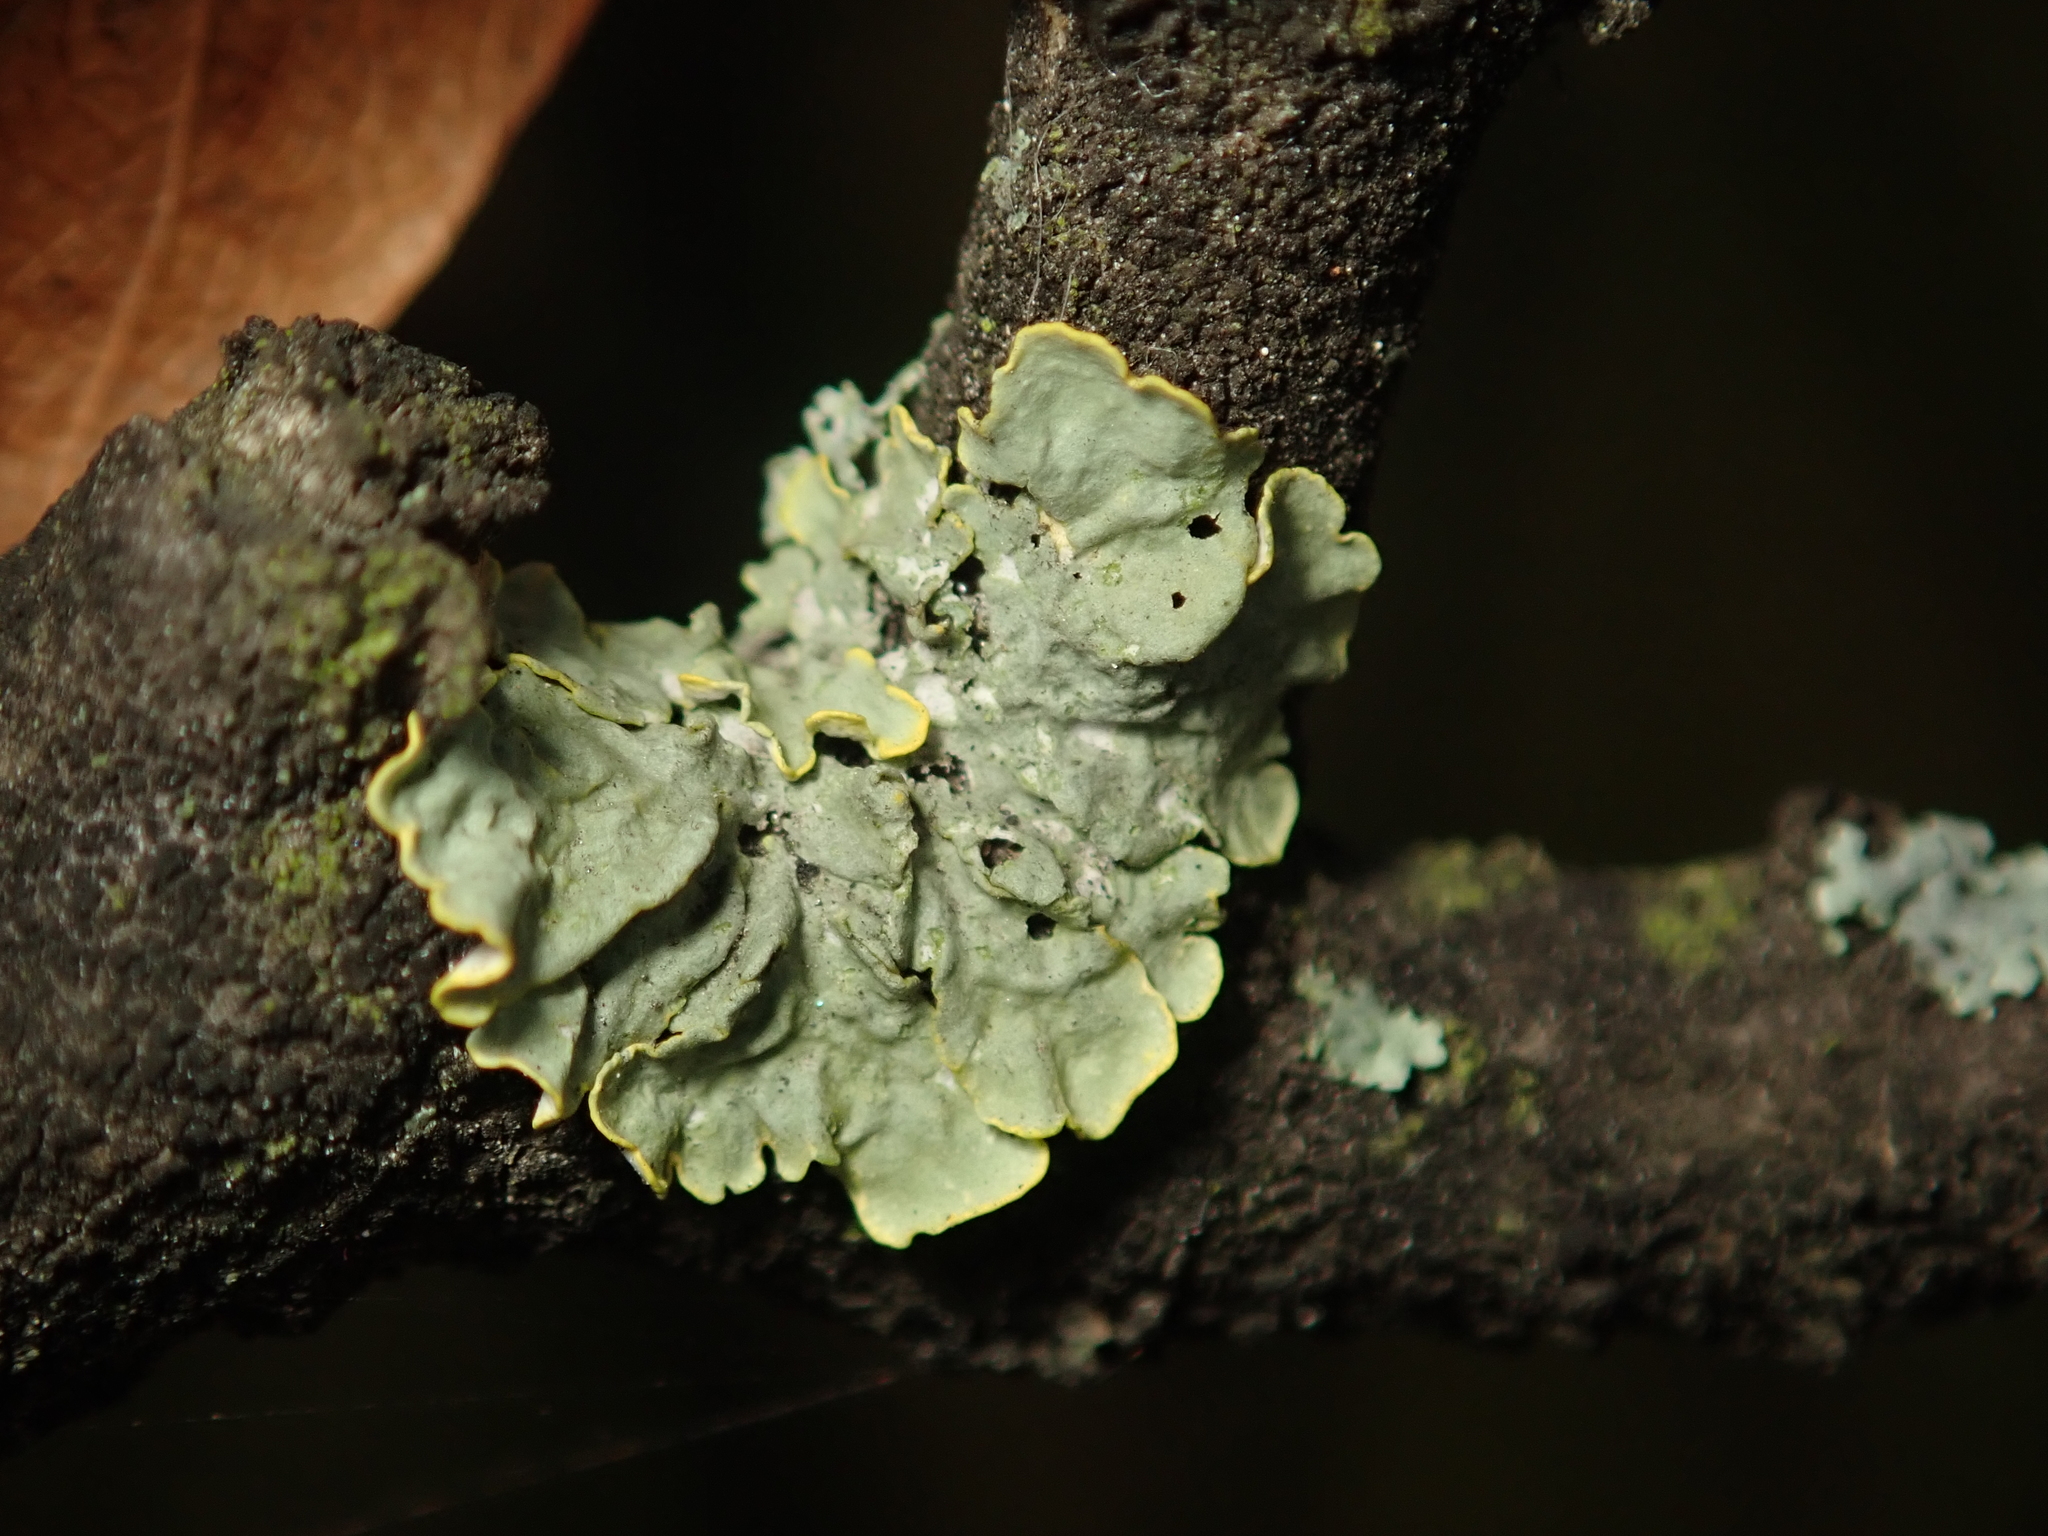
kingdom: Fungi
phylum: Ascomycota
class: Lecanoromycetes
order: Teloschistales
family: Teloschistaceae
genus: Xanthoria
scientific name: Xanthoria parietina
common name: Common orange lichen
